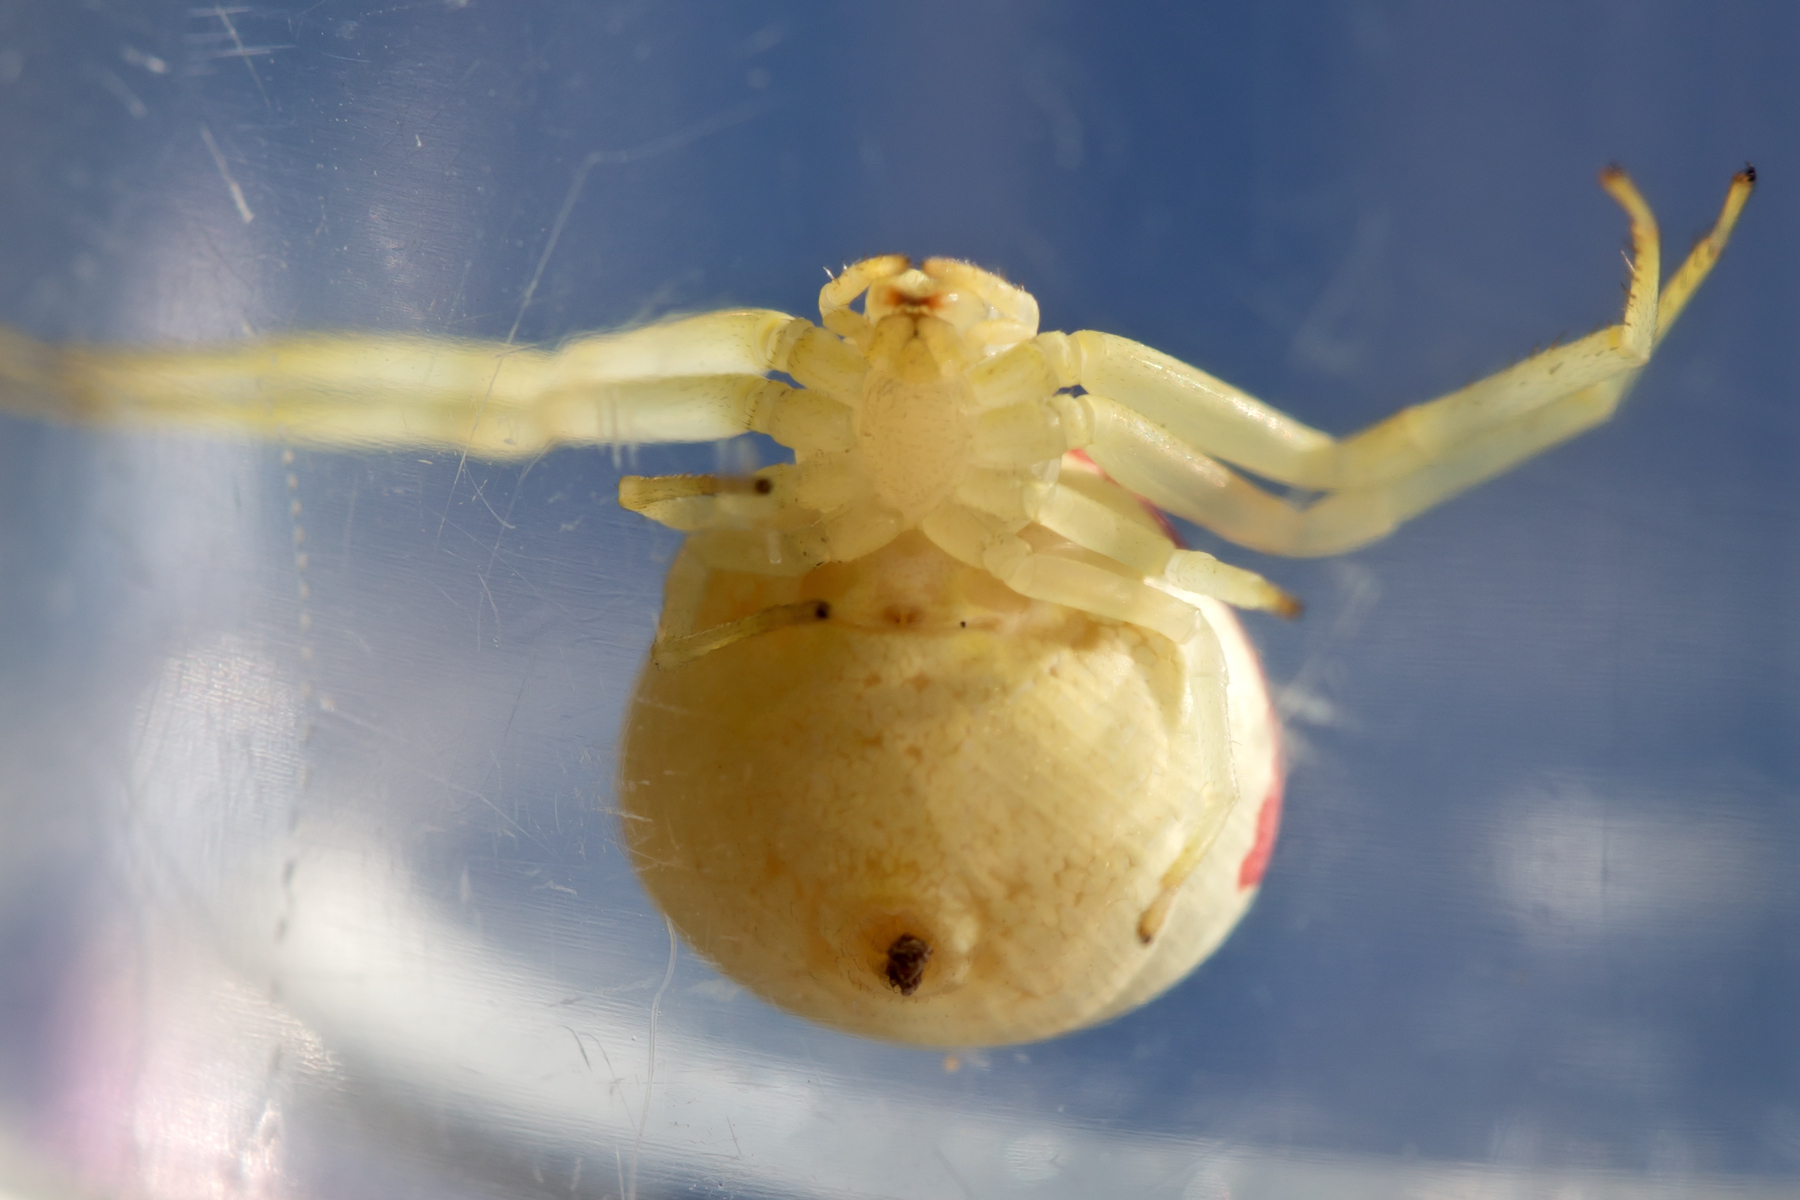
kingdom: Animalia
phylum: Arthropoda
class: Arachnida
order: Araneae
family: Thomisidae
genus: Misumena
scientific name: Misumena vatia
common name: Goldenrod crab spider
